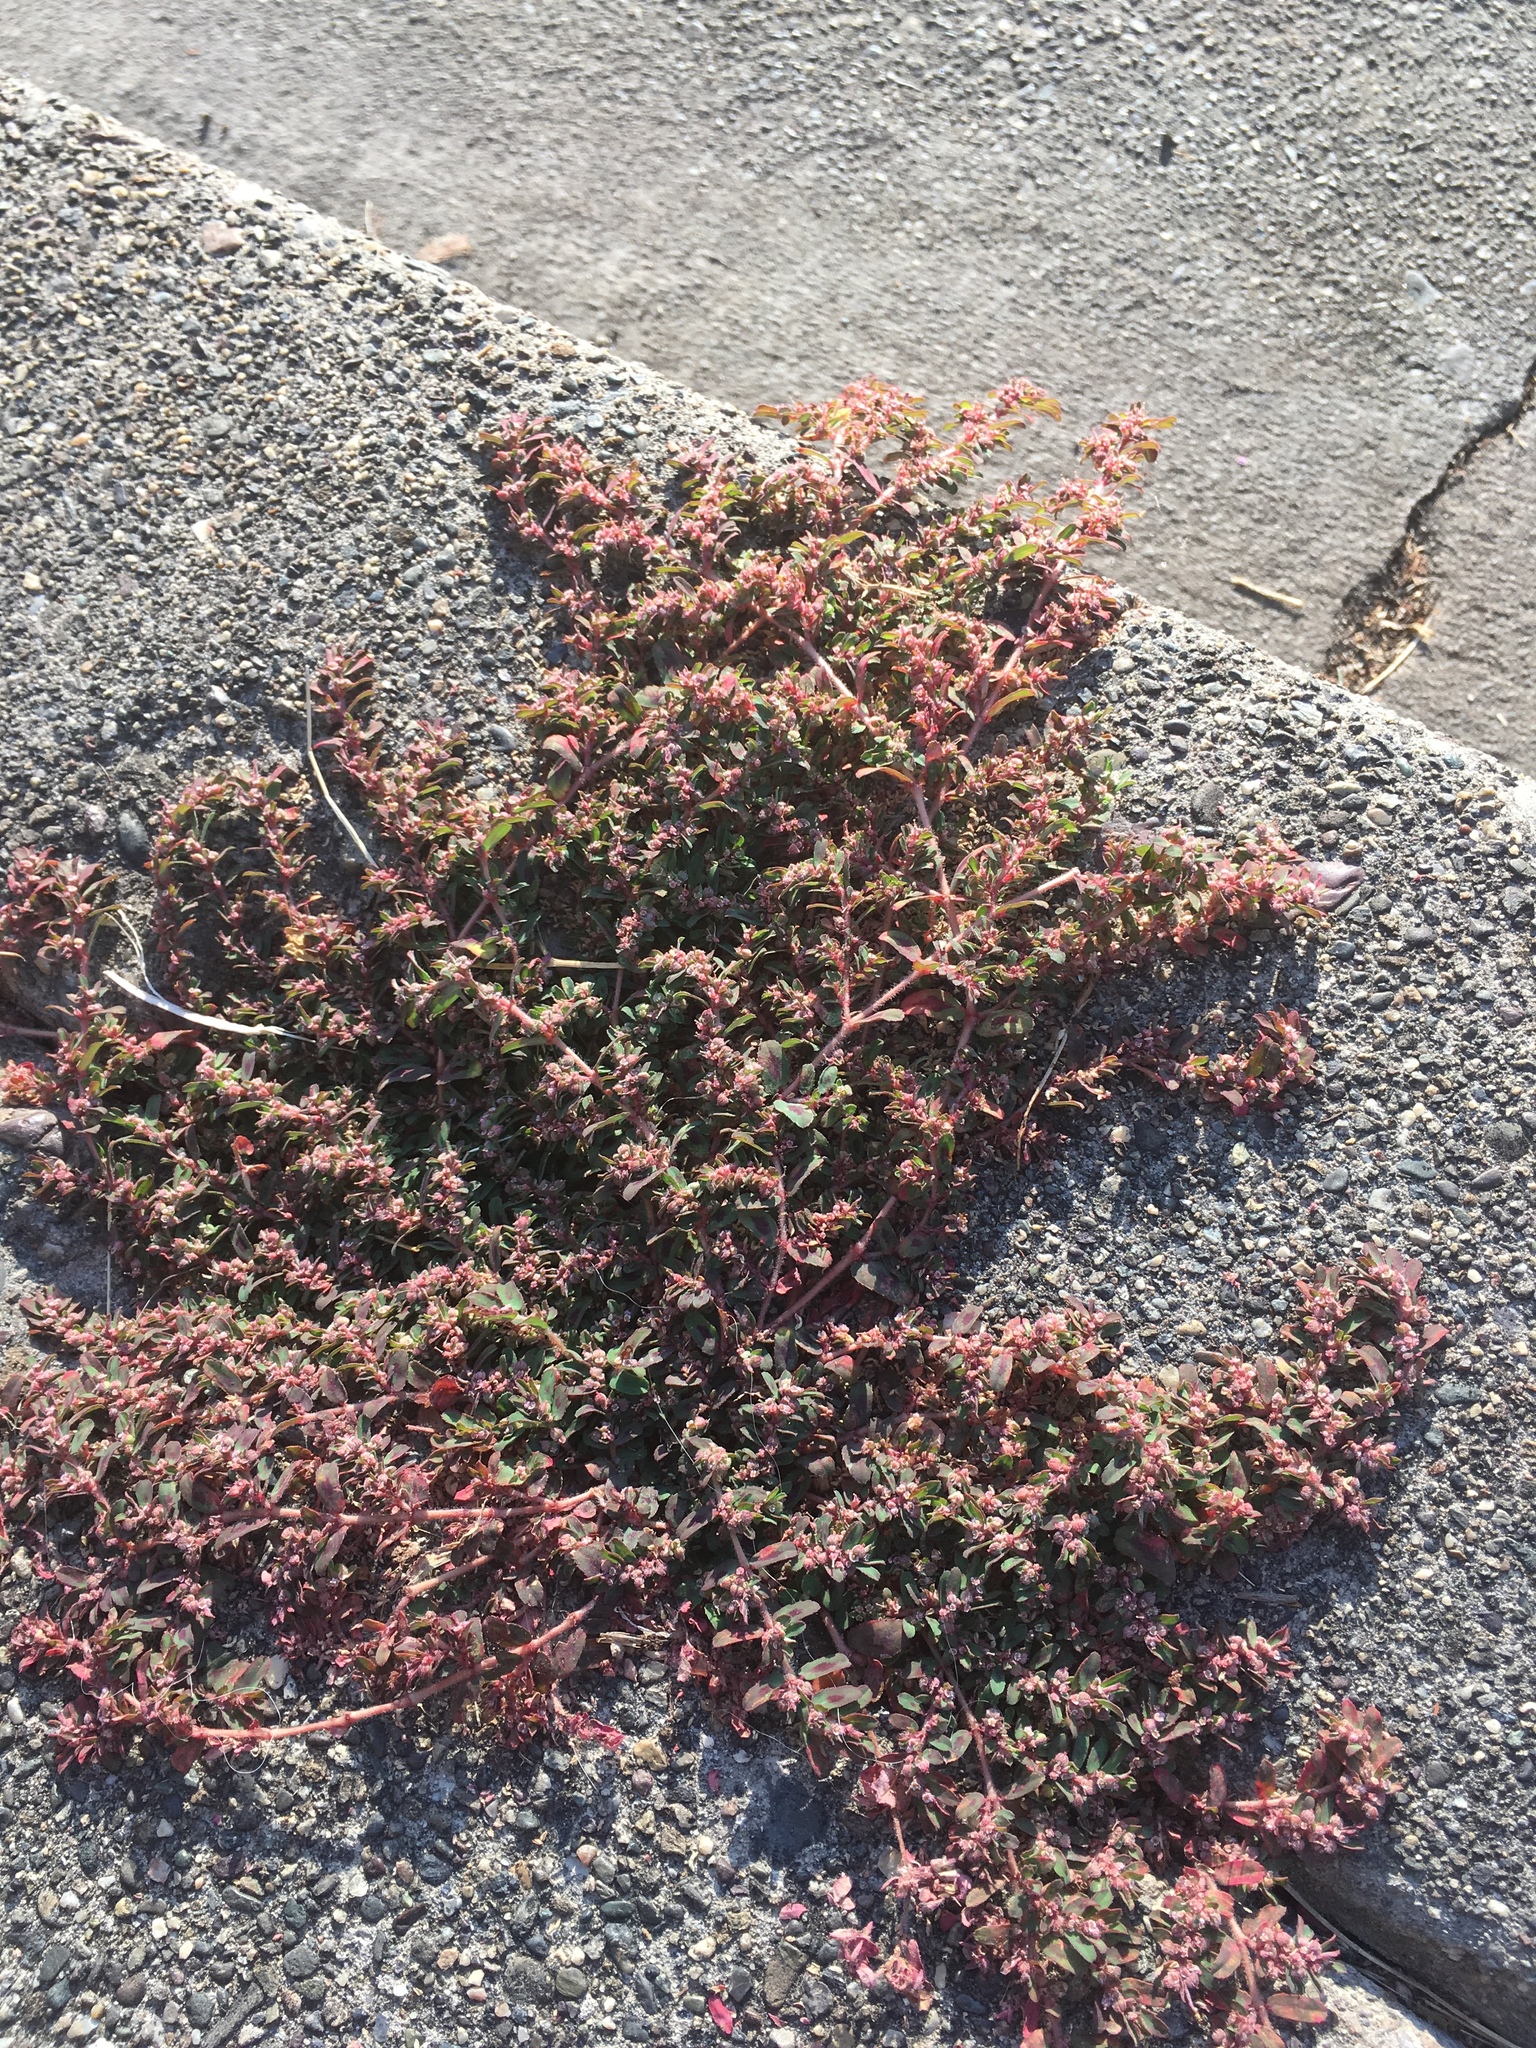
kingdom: Plantae
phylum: Tracheophyta
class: Magnoliopsida
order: Malpighiales
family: Euphorbiaceae
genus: Euphorbia
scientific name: Euphorbia maculata
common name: Spotted spurge
